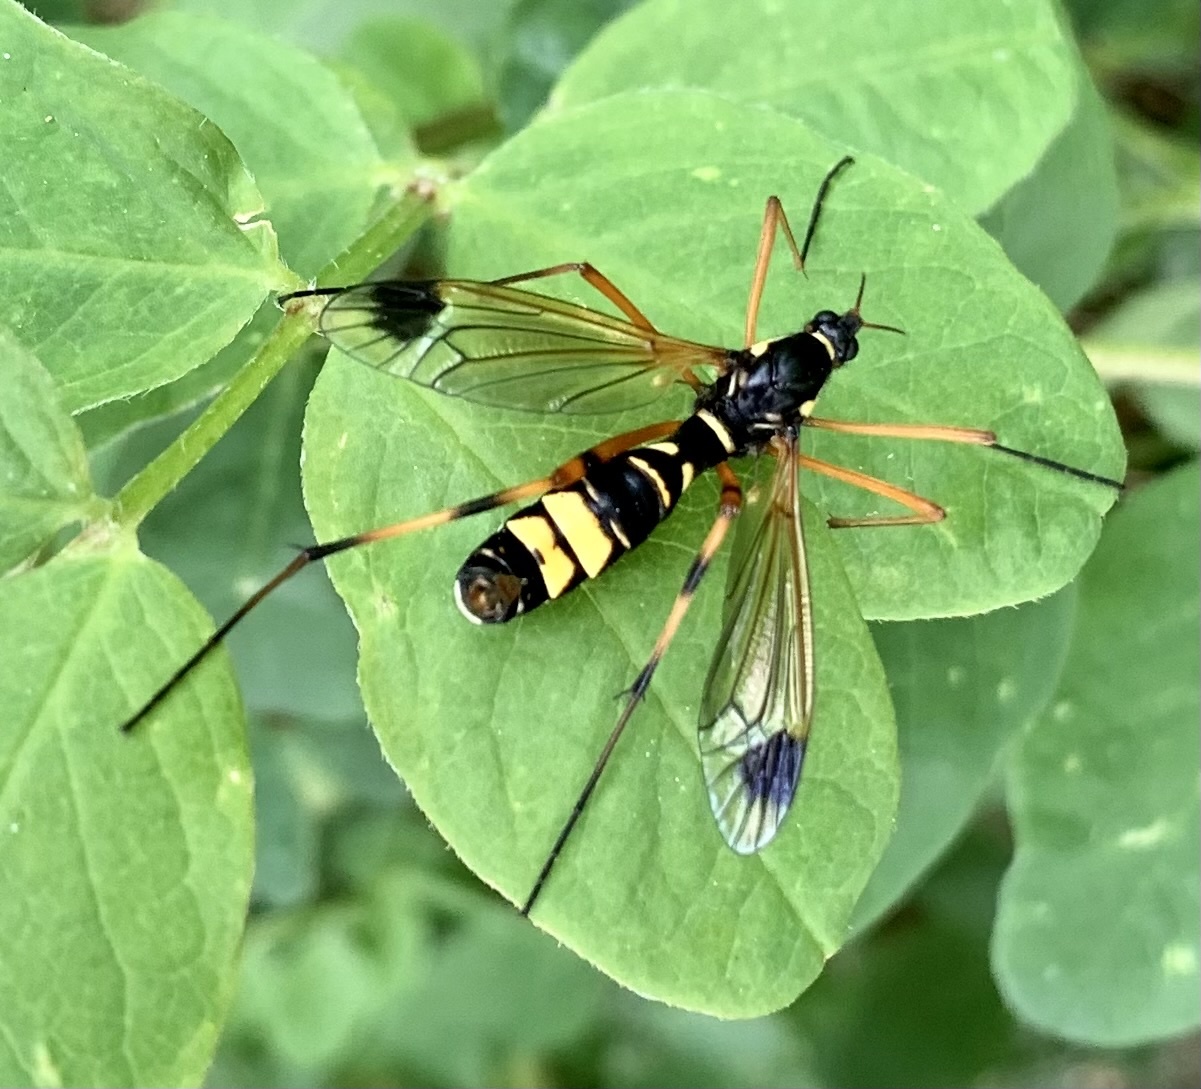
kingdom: Animalia
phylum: Arthropoda
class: Insecta
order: Diptera
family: Tipulidae
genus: Ctenophora
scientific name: Ctenophora festiva
